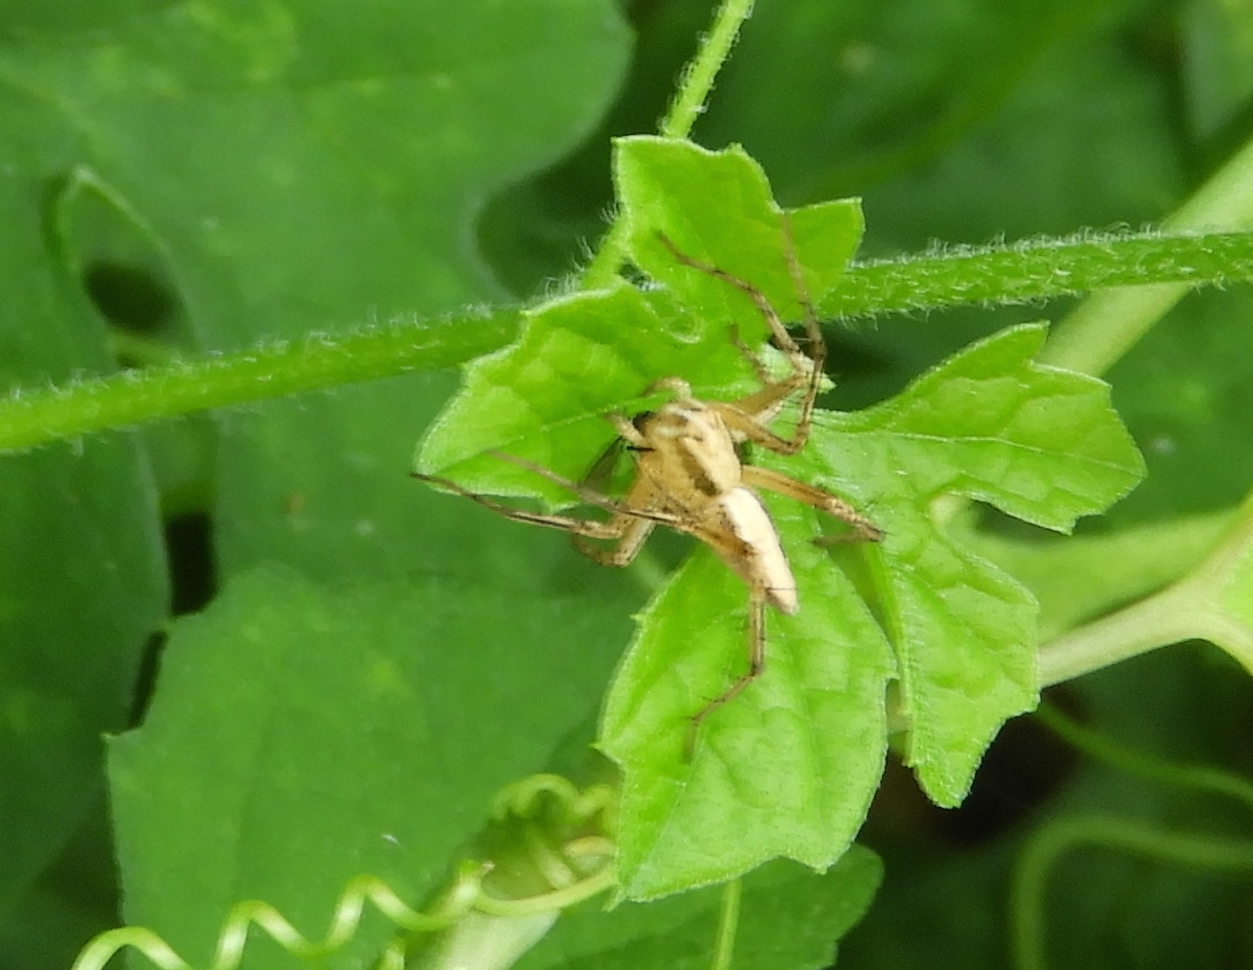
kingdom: Animalia
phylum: Arthropoda
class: Arachnida
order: Araneae
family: Oxyopidae
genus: Oxyopes
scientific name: Oxyopes
